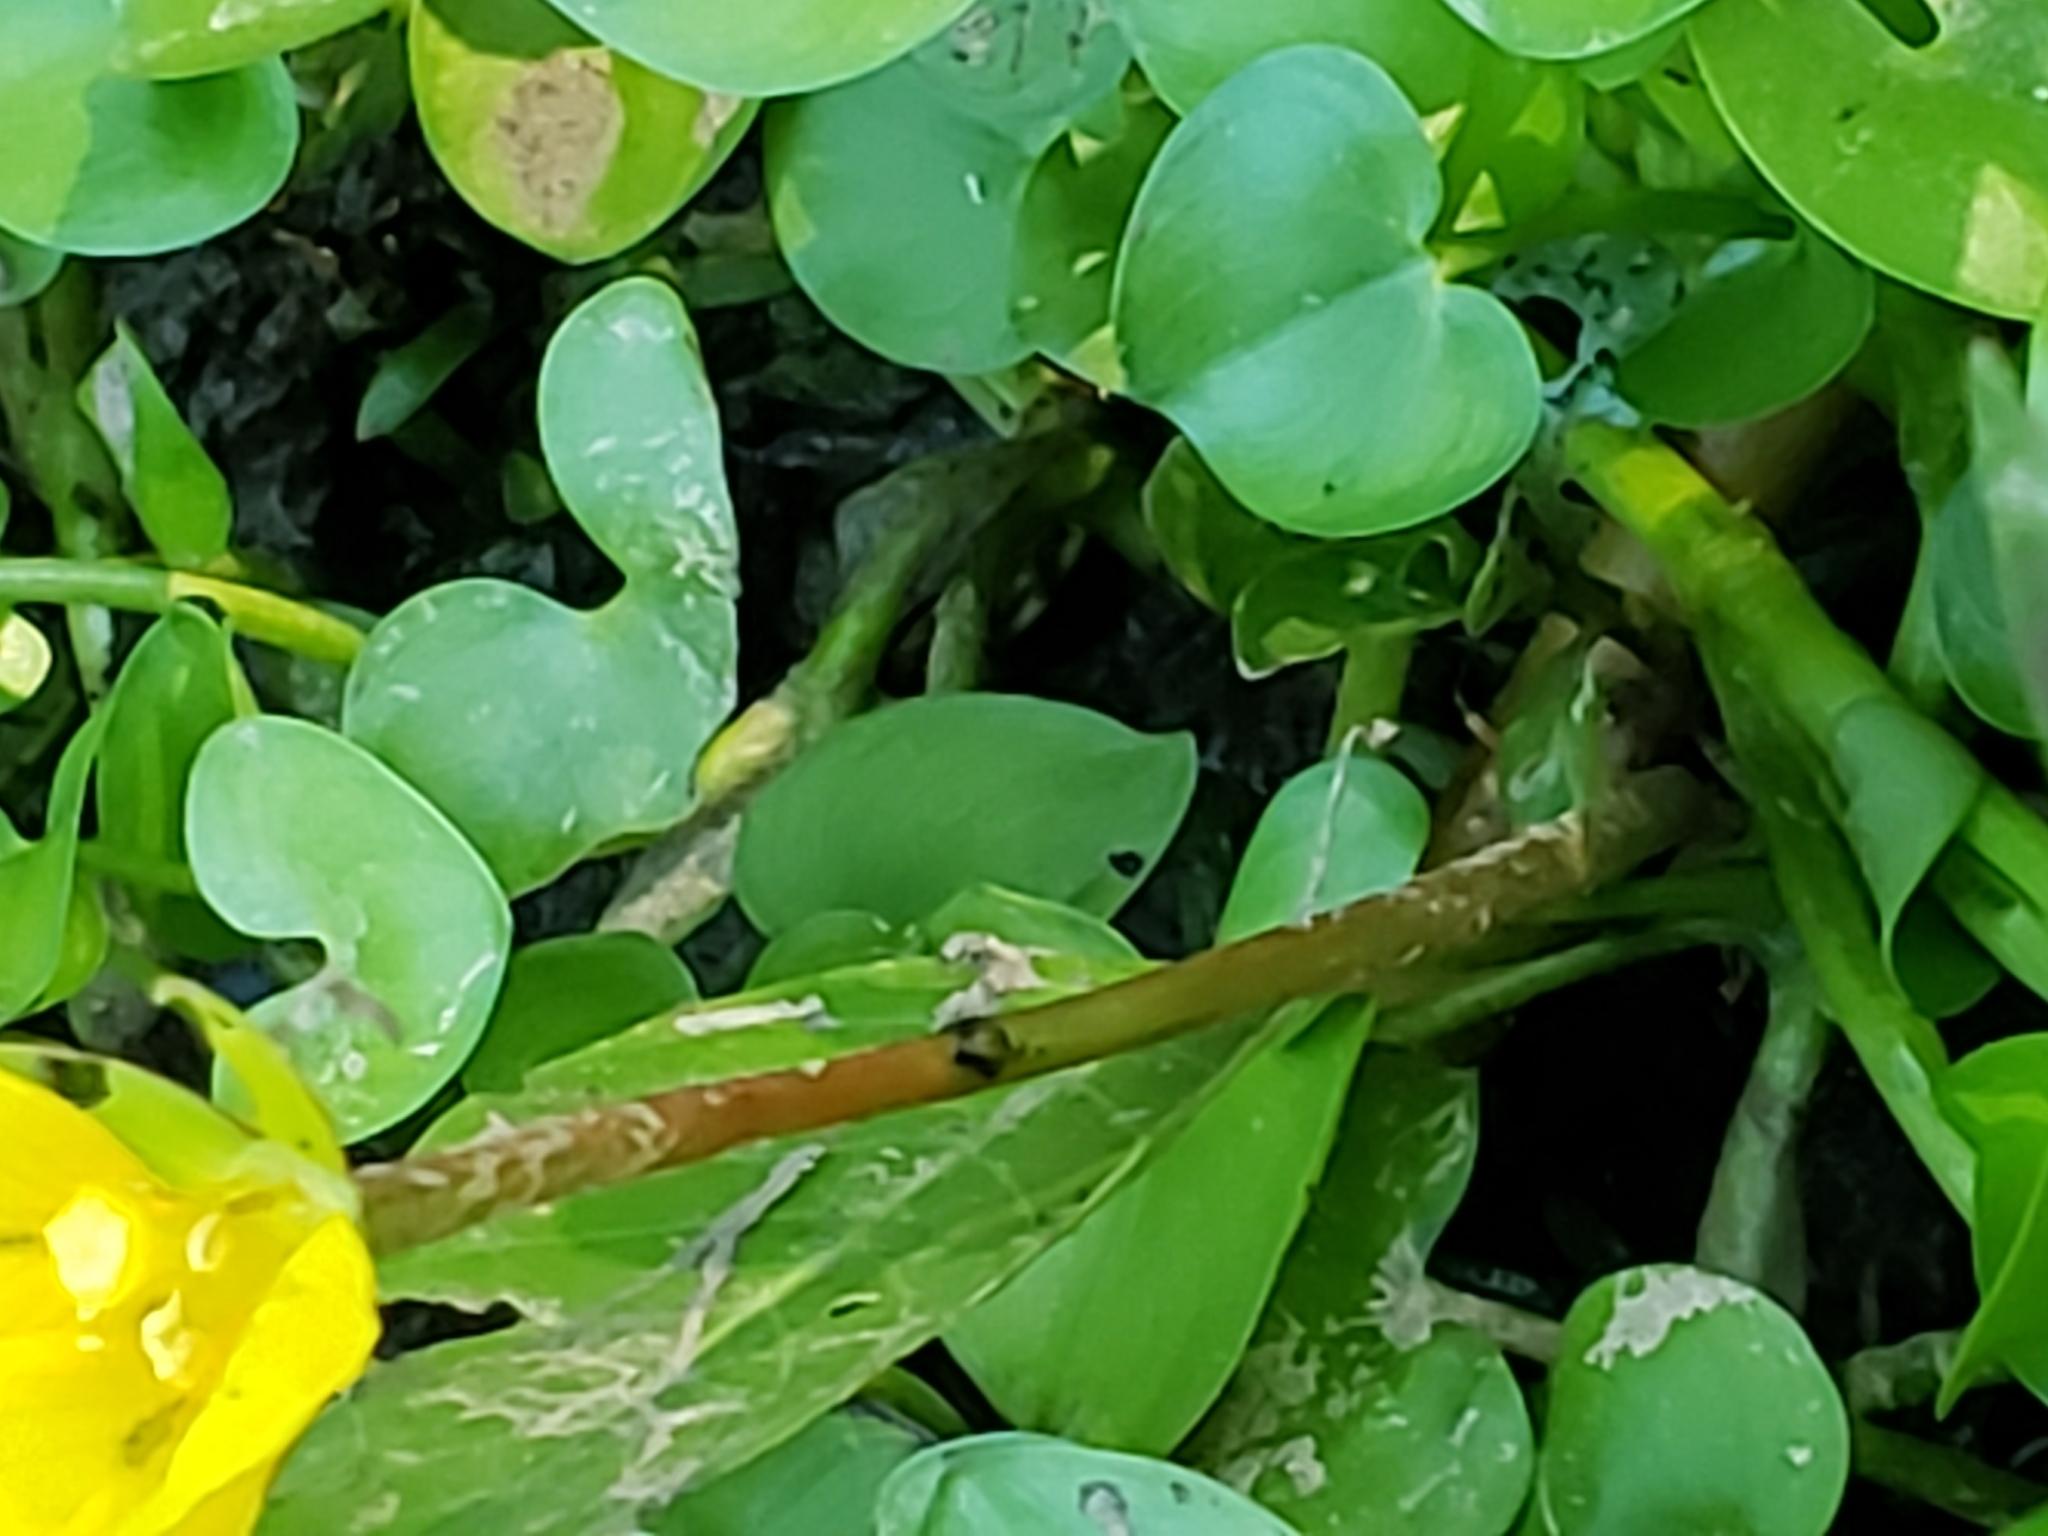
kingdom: Plantae
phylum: Tracheophyta
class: Magnoliopsida
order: Myrtales
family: Onagraceae
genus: Ludwigia
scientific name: Ludwigia peploides
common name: Floating primrose-willow
